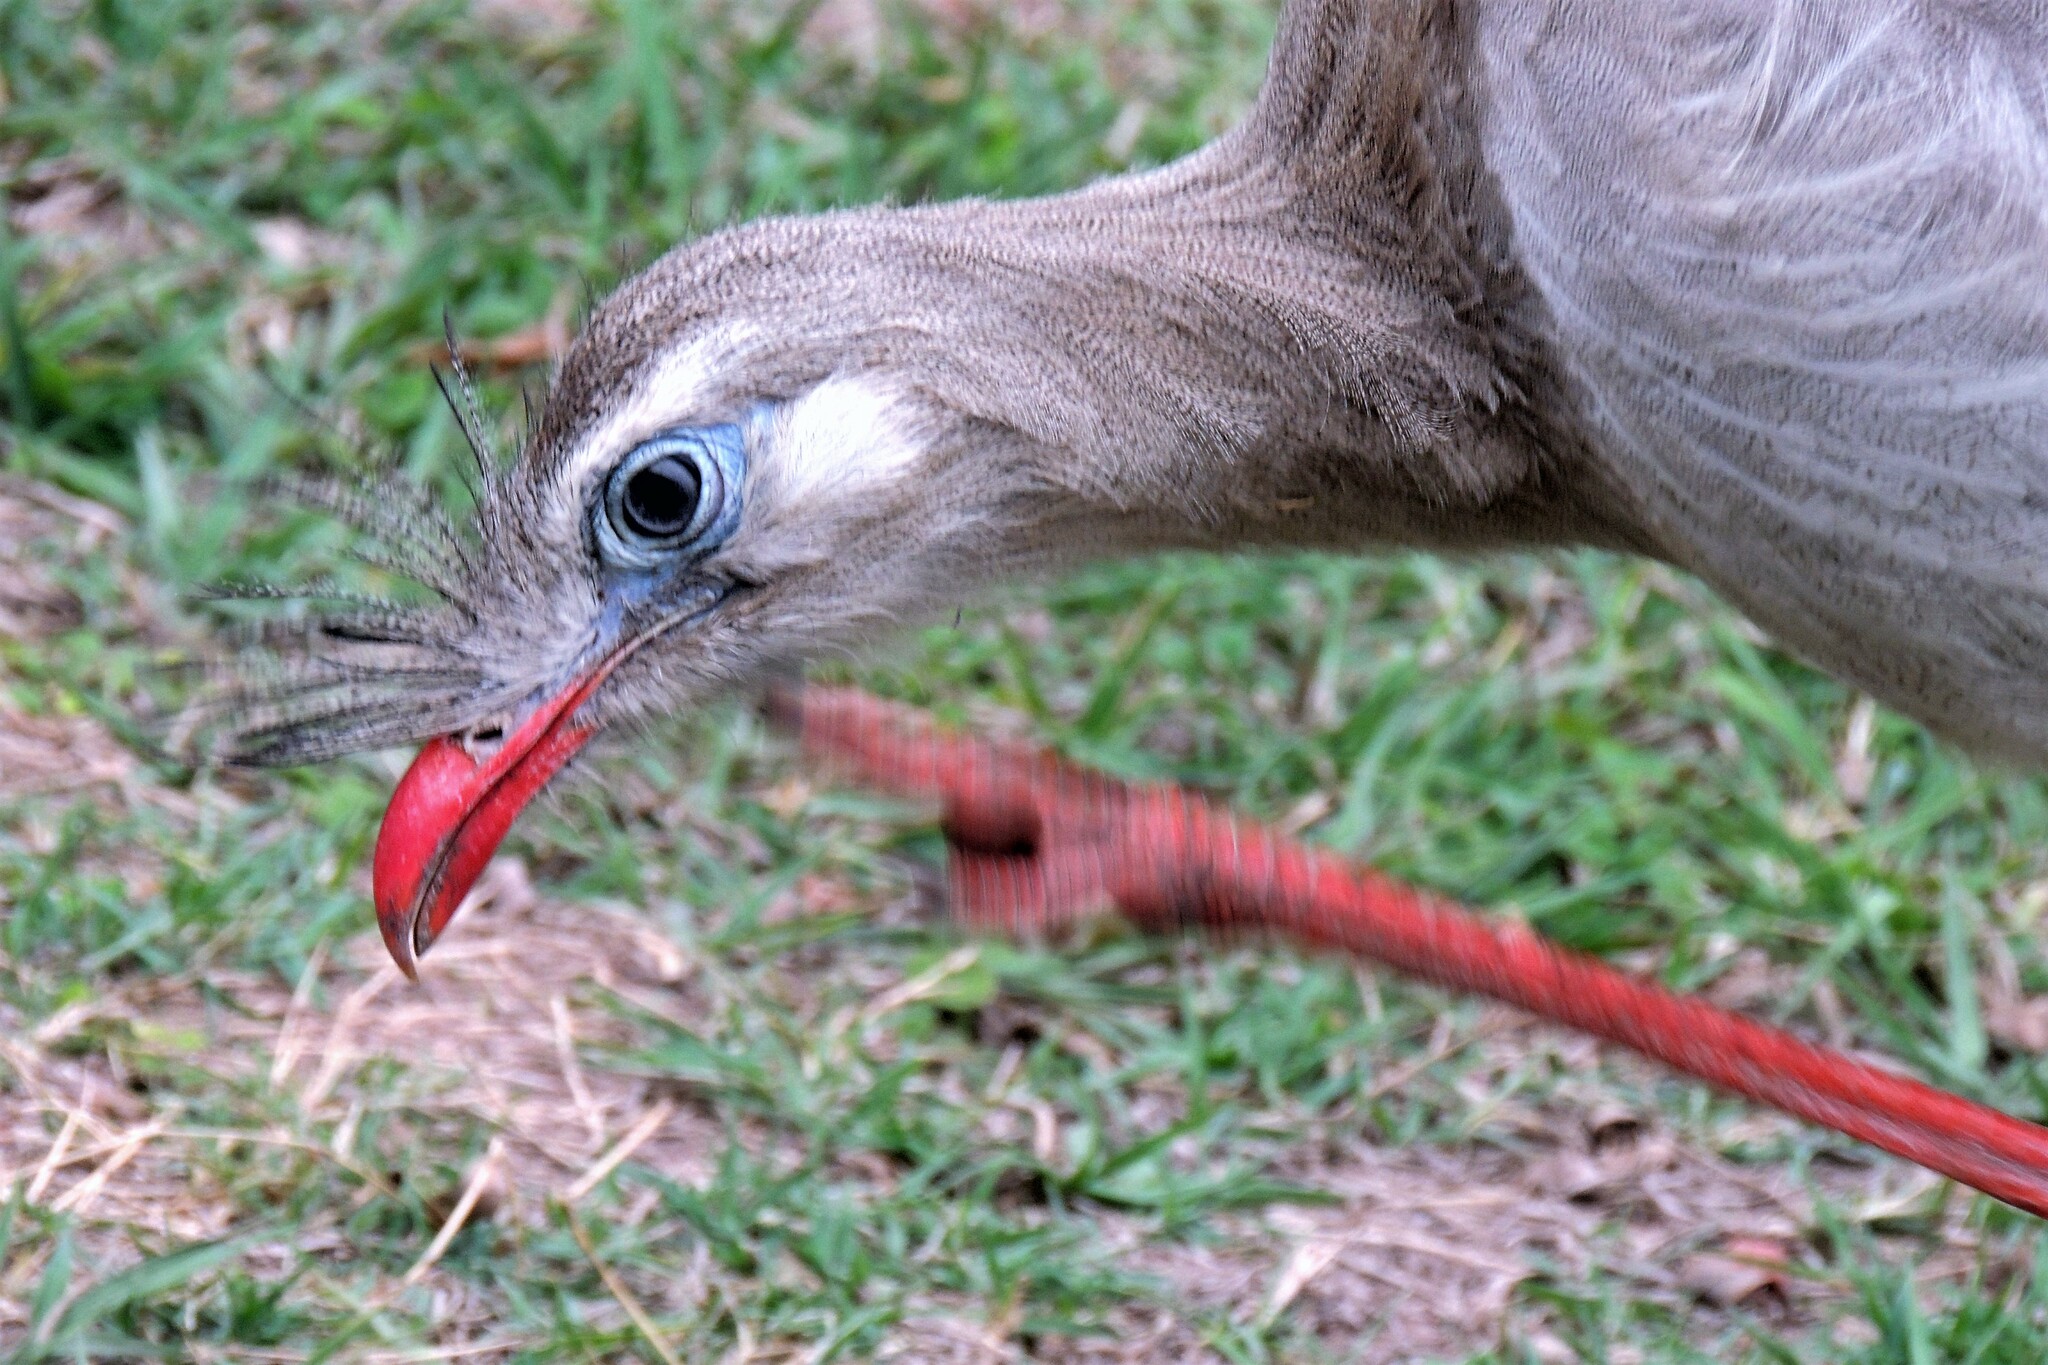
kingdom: Animalia
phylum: Chordata
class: Aves
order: Cariamiformes
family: Cariamidae
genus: Cariama
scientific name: Cariama cristata
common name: Red-legged seriema
